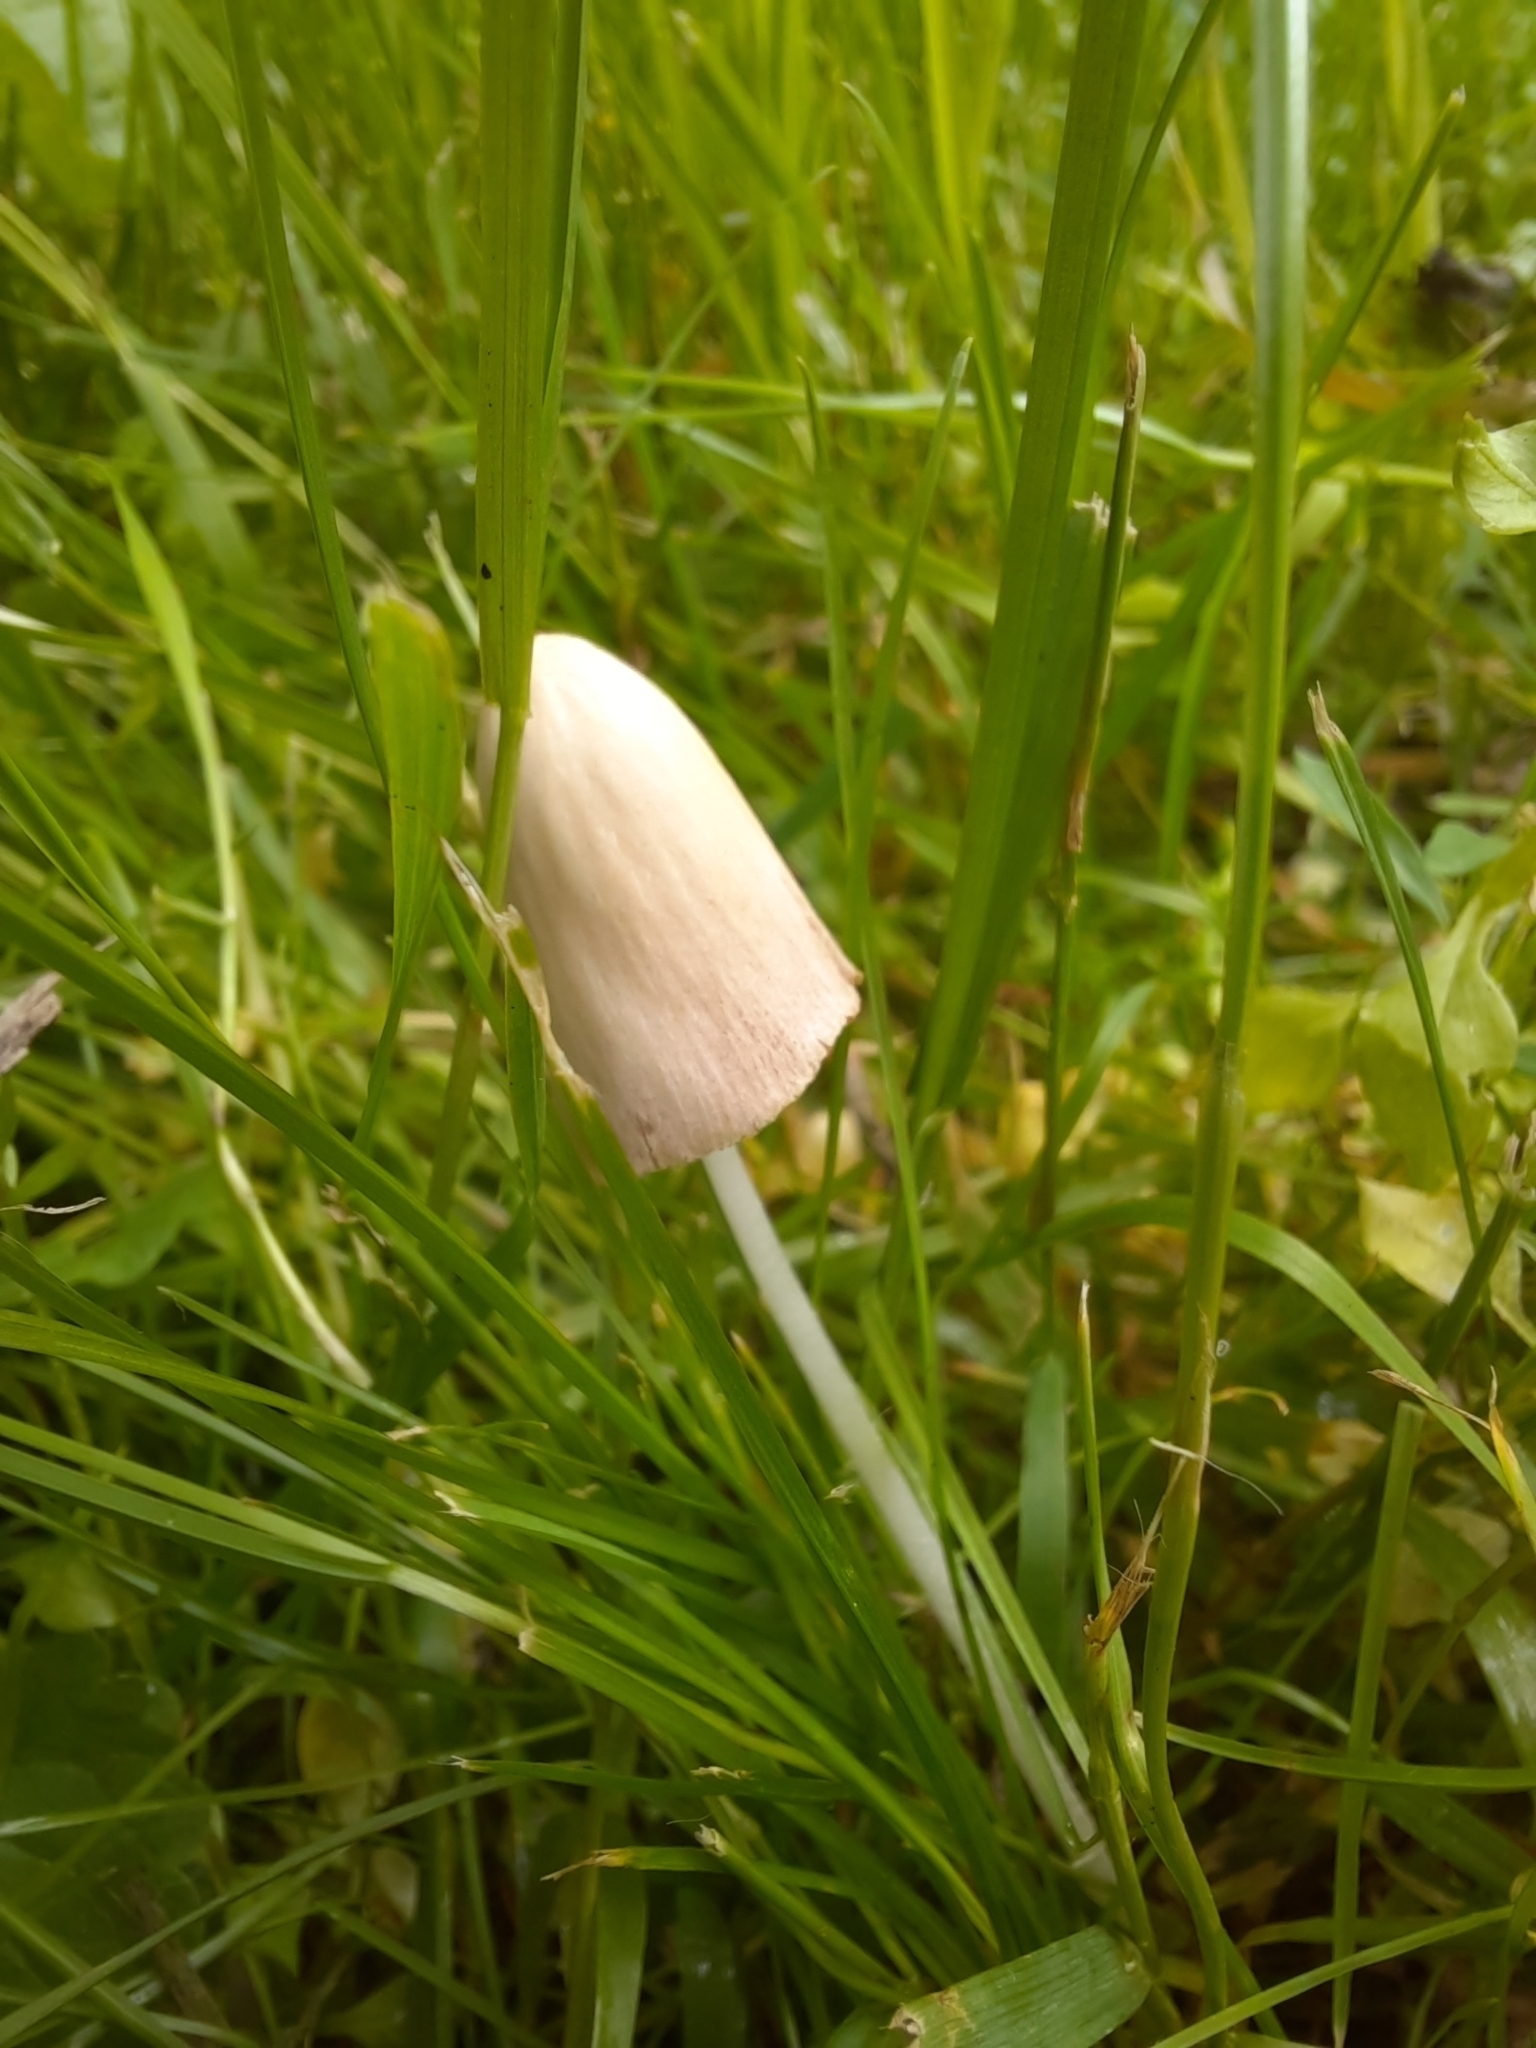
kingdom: Fungi
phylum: Basidiomycota
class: Agaricomycetes
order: Agaricales
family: Bolbitiaceae
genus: Conocybe
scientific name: Conocybe apala
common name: Milky conecap
